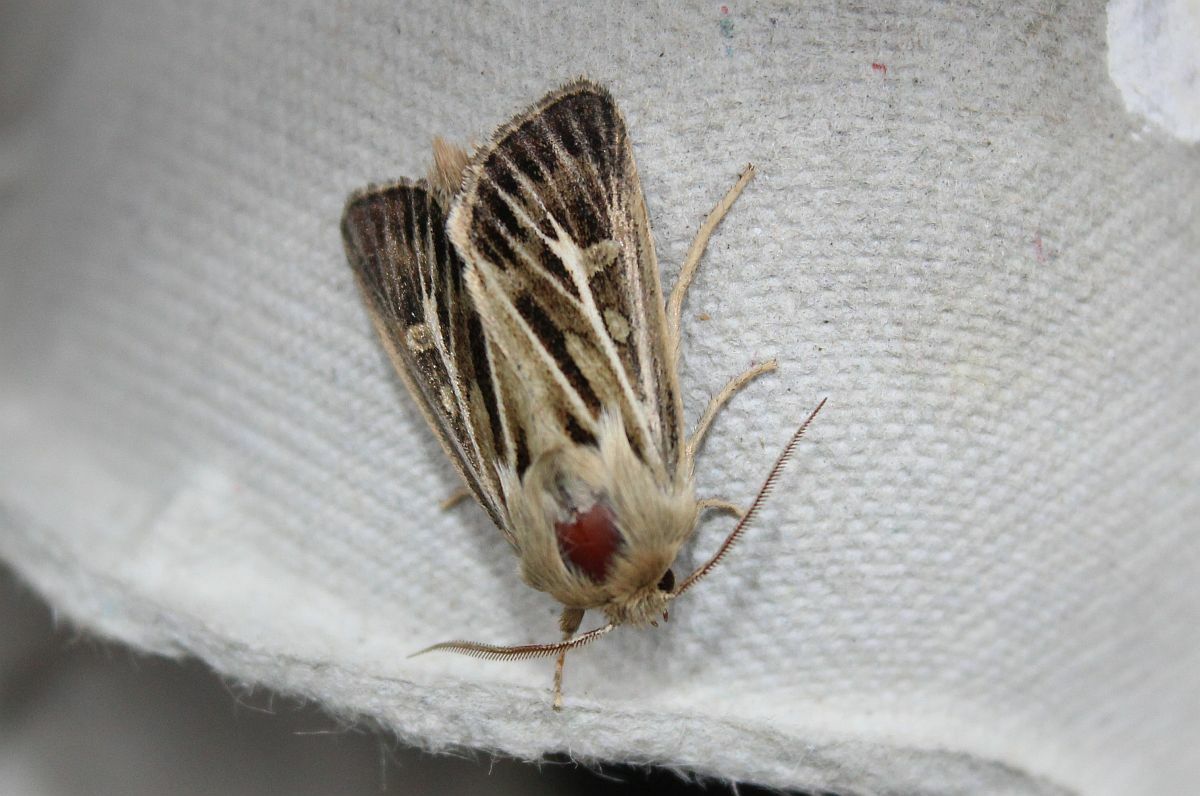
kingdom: Animalia
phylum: Arthropoda
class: Insecta
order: Lepidoptera
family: Noctuidae
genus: Cerapteryx
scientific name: Cerapteryx graminis
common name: Antler moth
